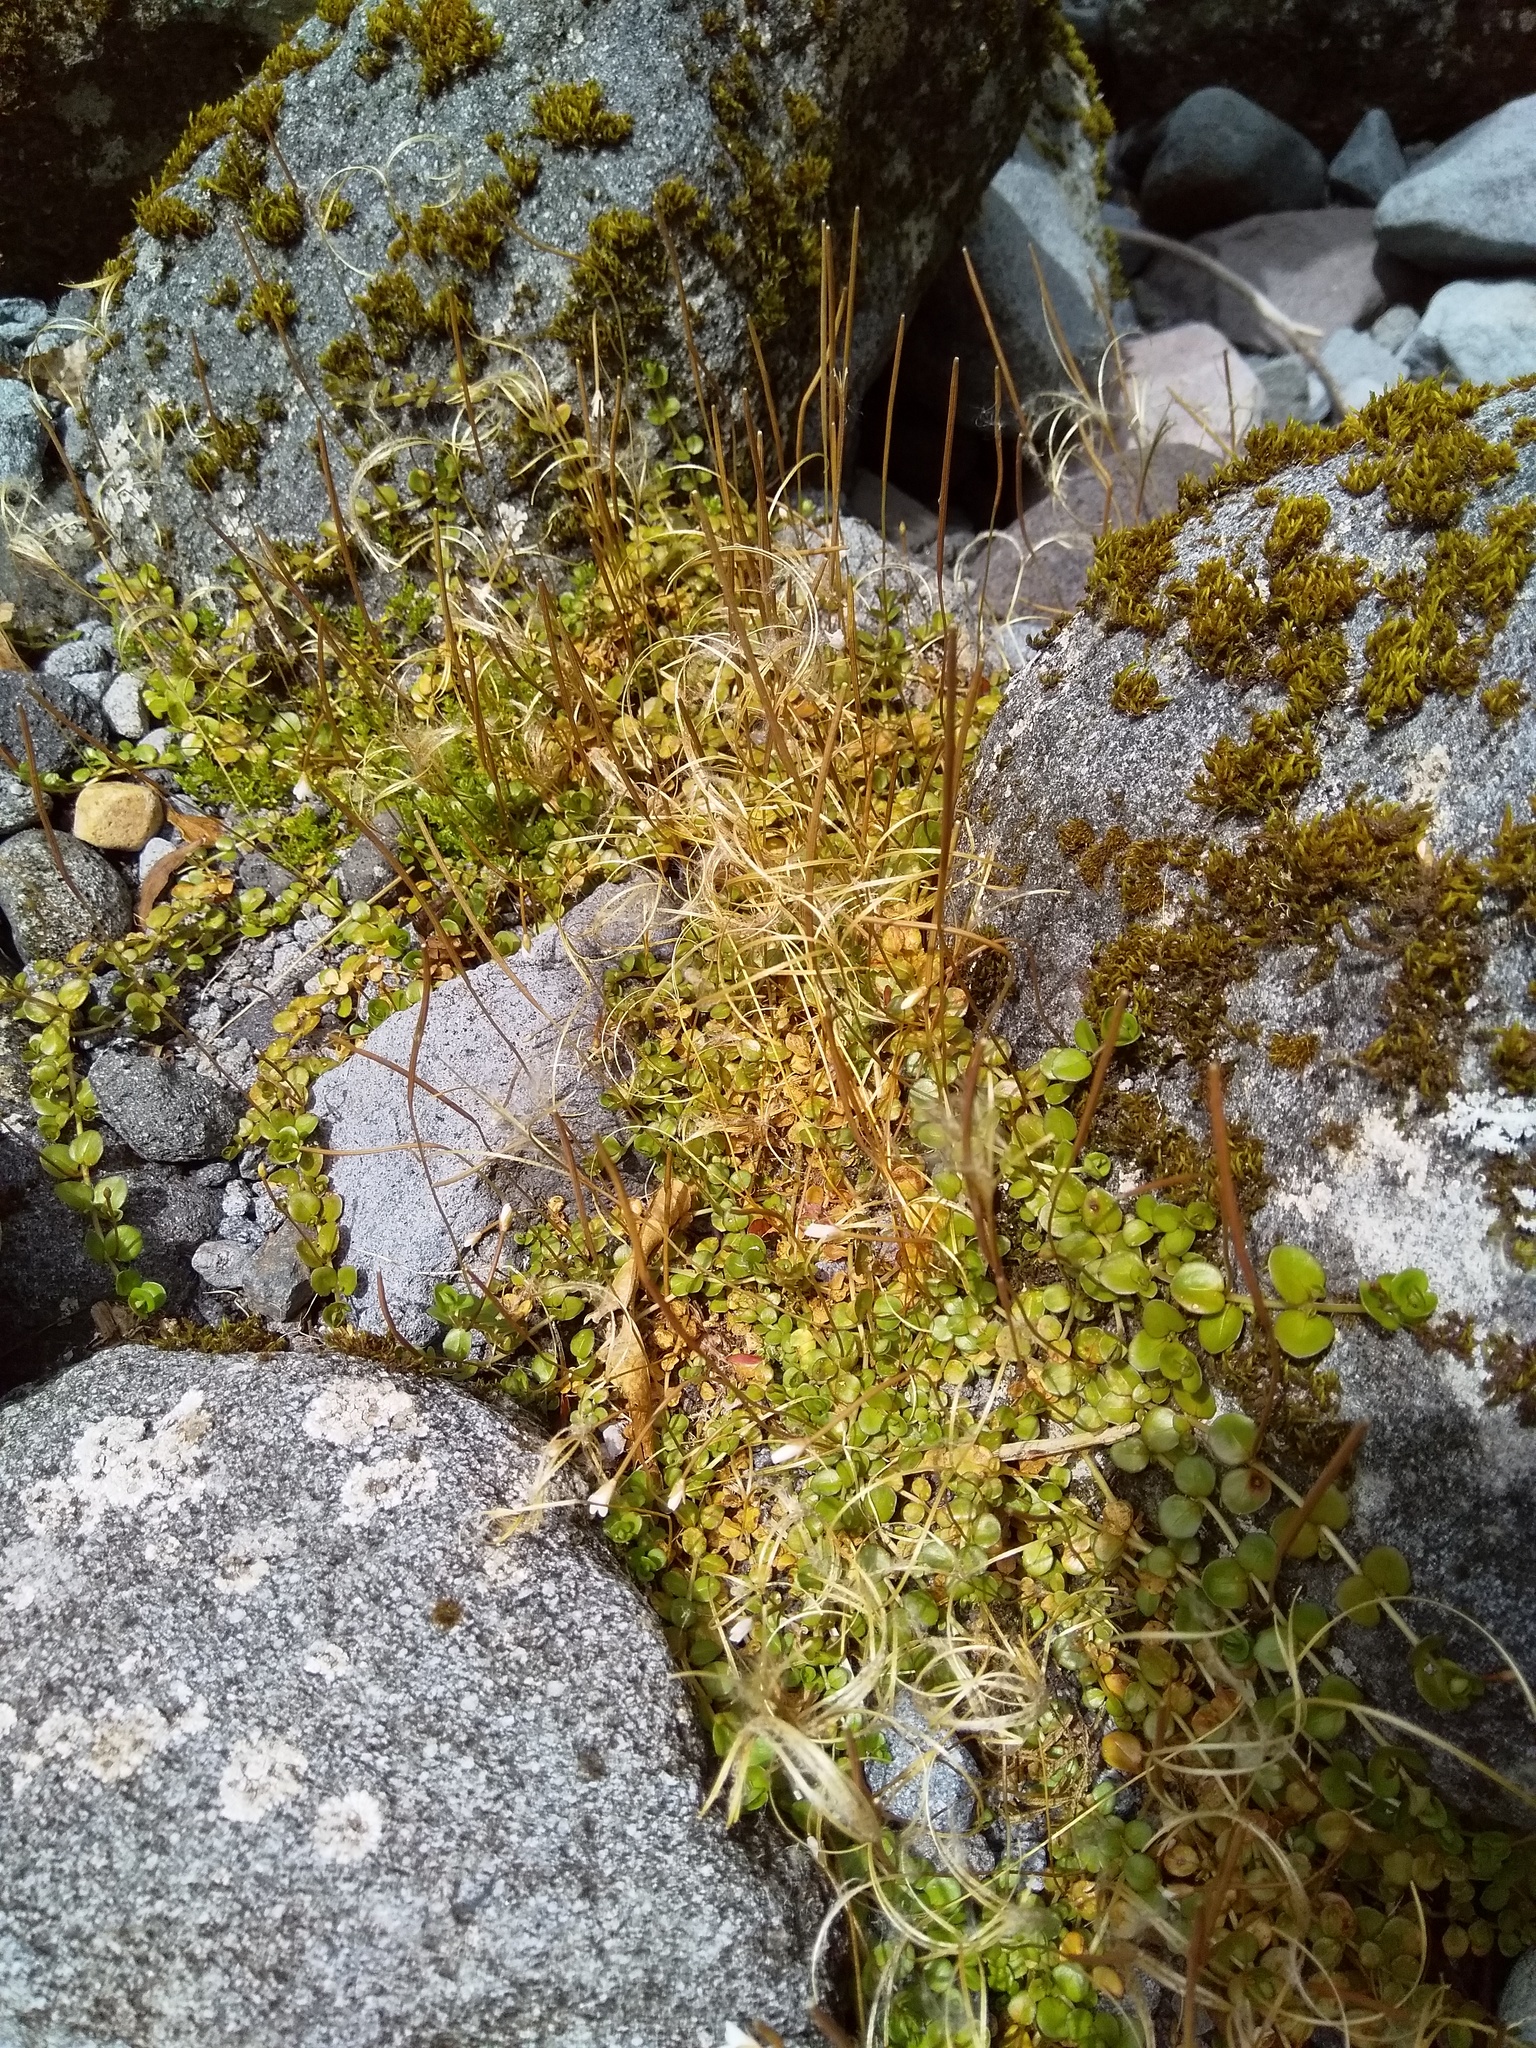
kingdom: Plantae
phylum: Tracheophyta
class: Magnoliopsida
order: Myrtales
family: Onagraceae
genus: Epilobium
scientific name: Epilobium brunnescens
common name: New zealand willowherb
